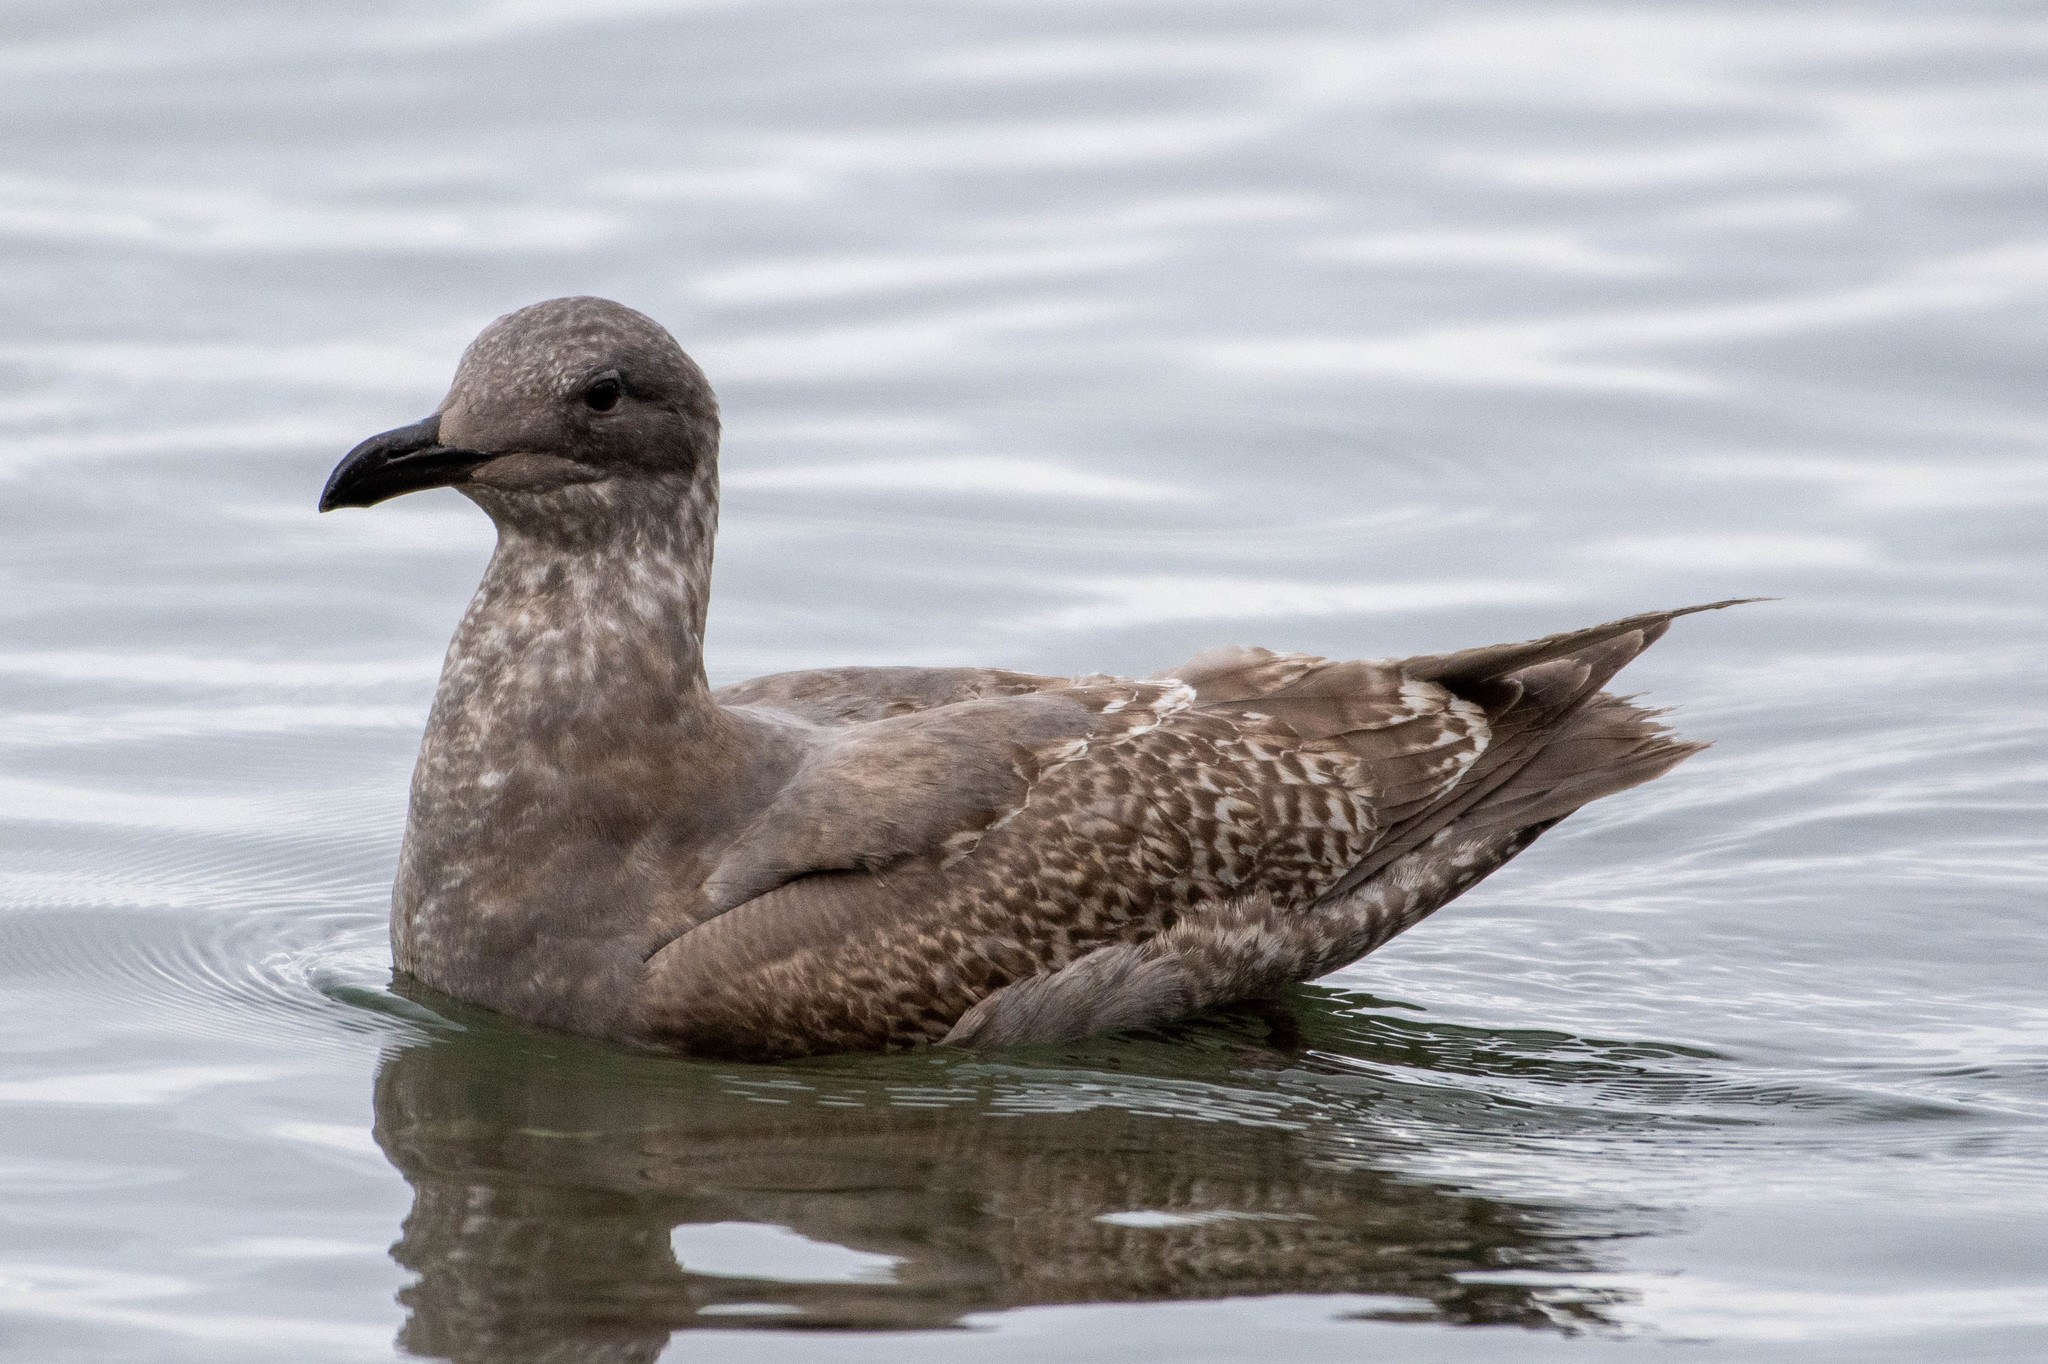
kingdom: Animalia
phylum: Chordata
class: Aves
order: Charadriiformes
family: Laridae
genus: Larus
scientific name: Larus
